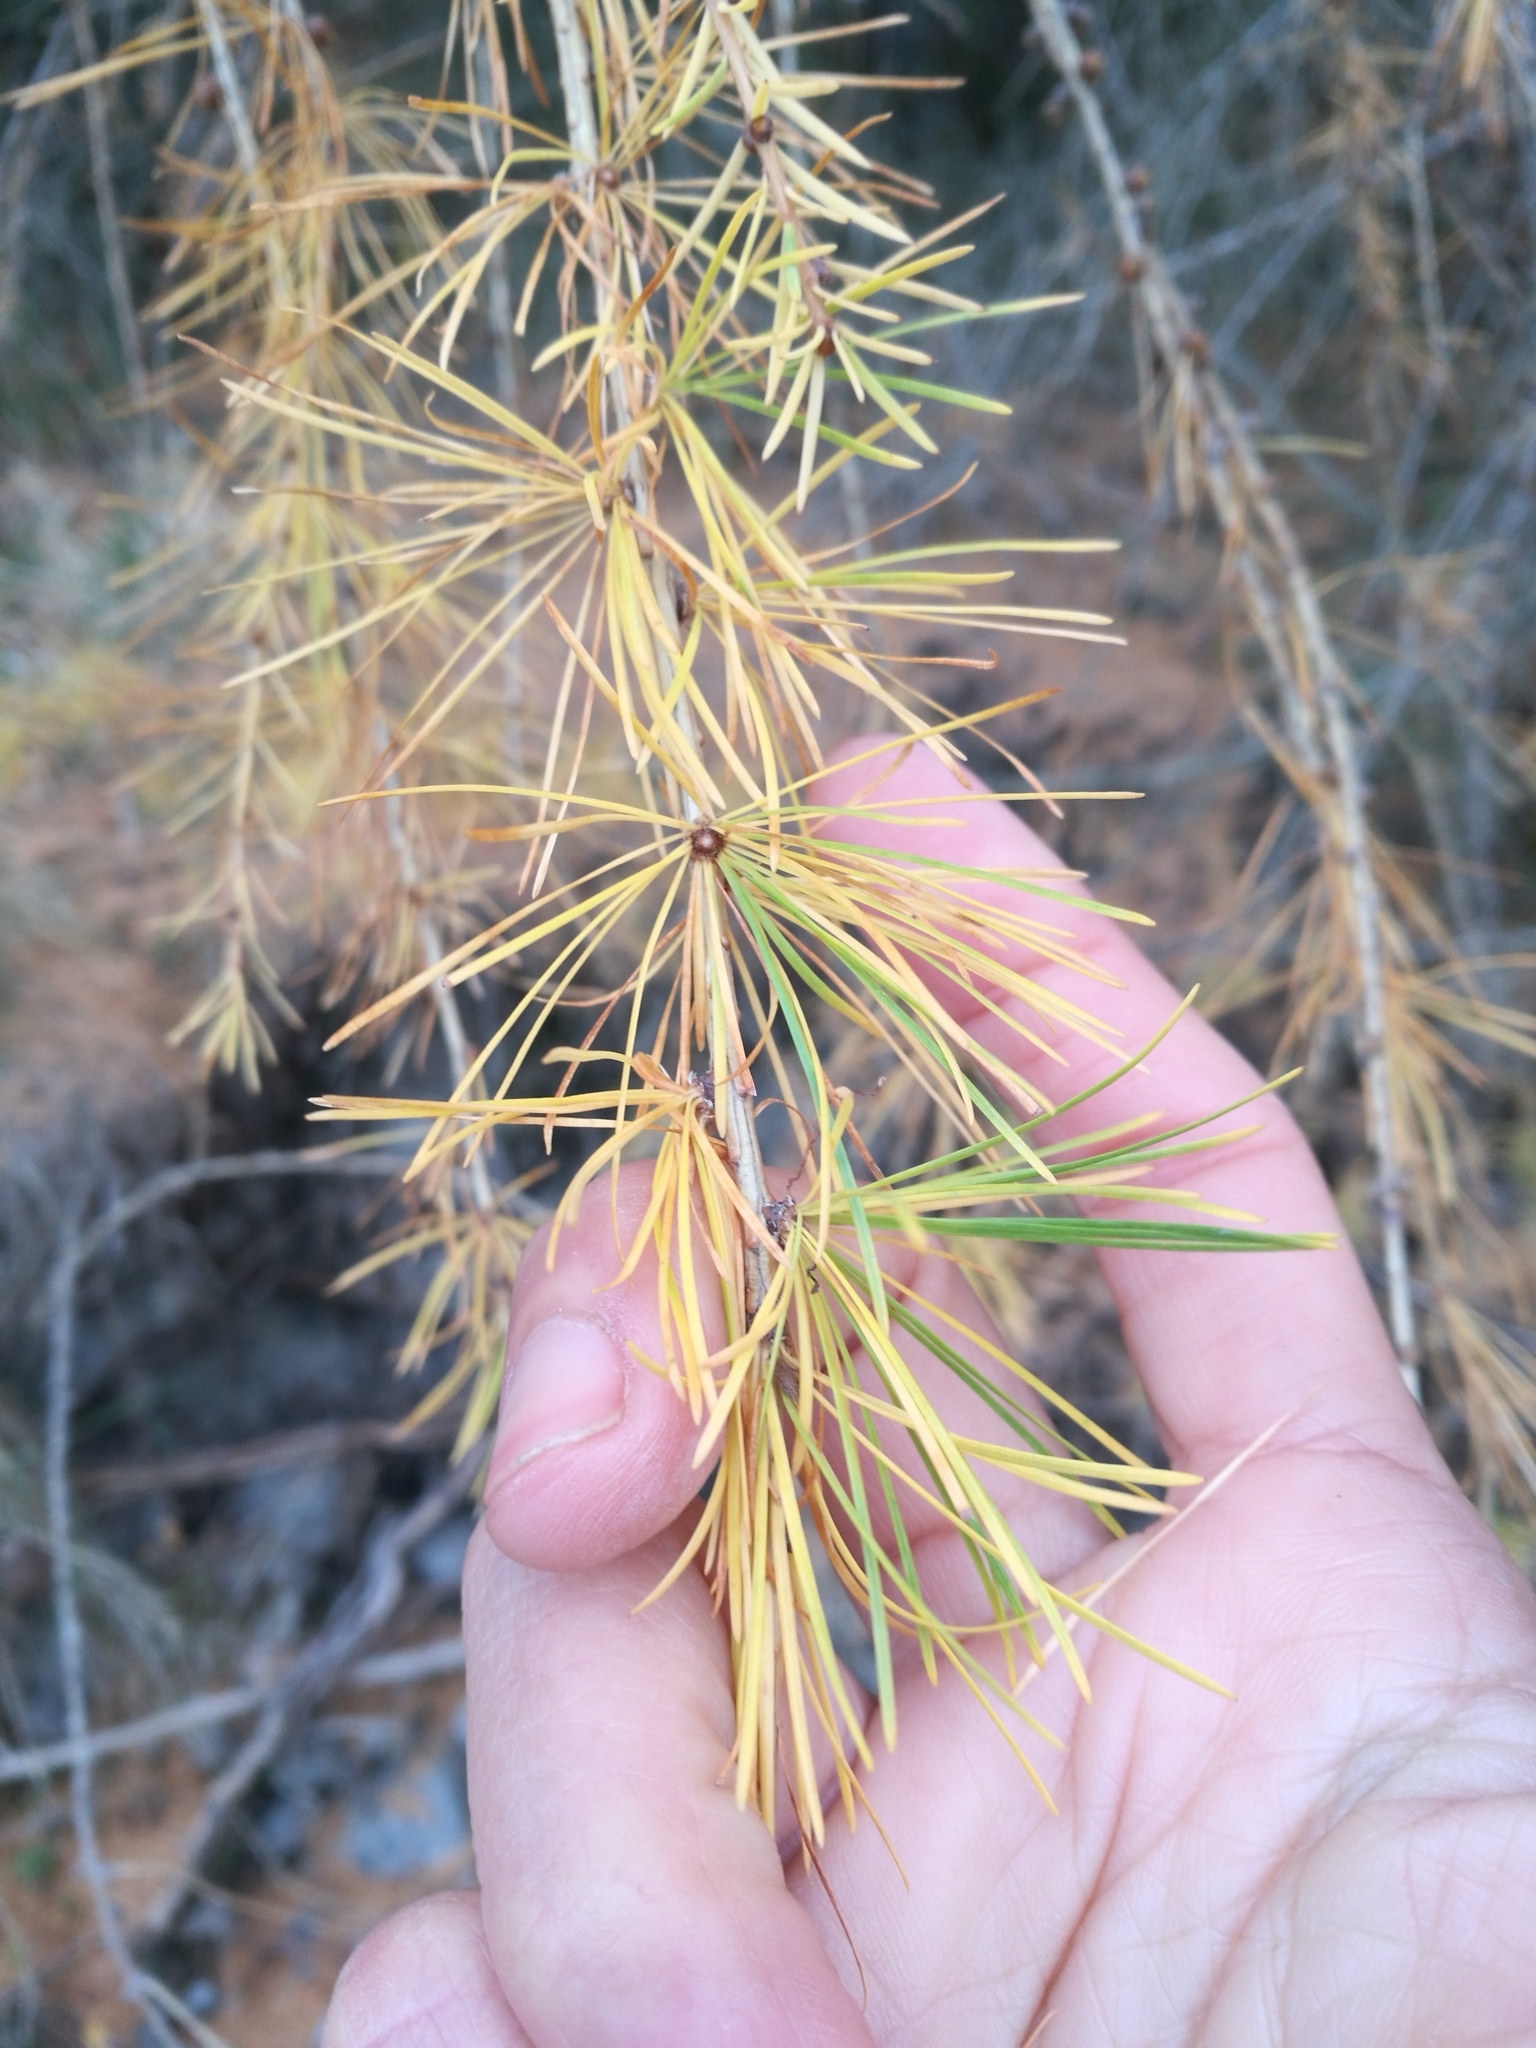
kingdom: Plantae
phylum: Tracheophyta
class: Pinopsida
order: Pinales
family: Pinaceae
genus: Larix
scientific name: Larix decidua
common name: European larch
